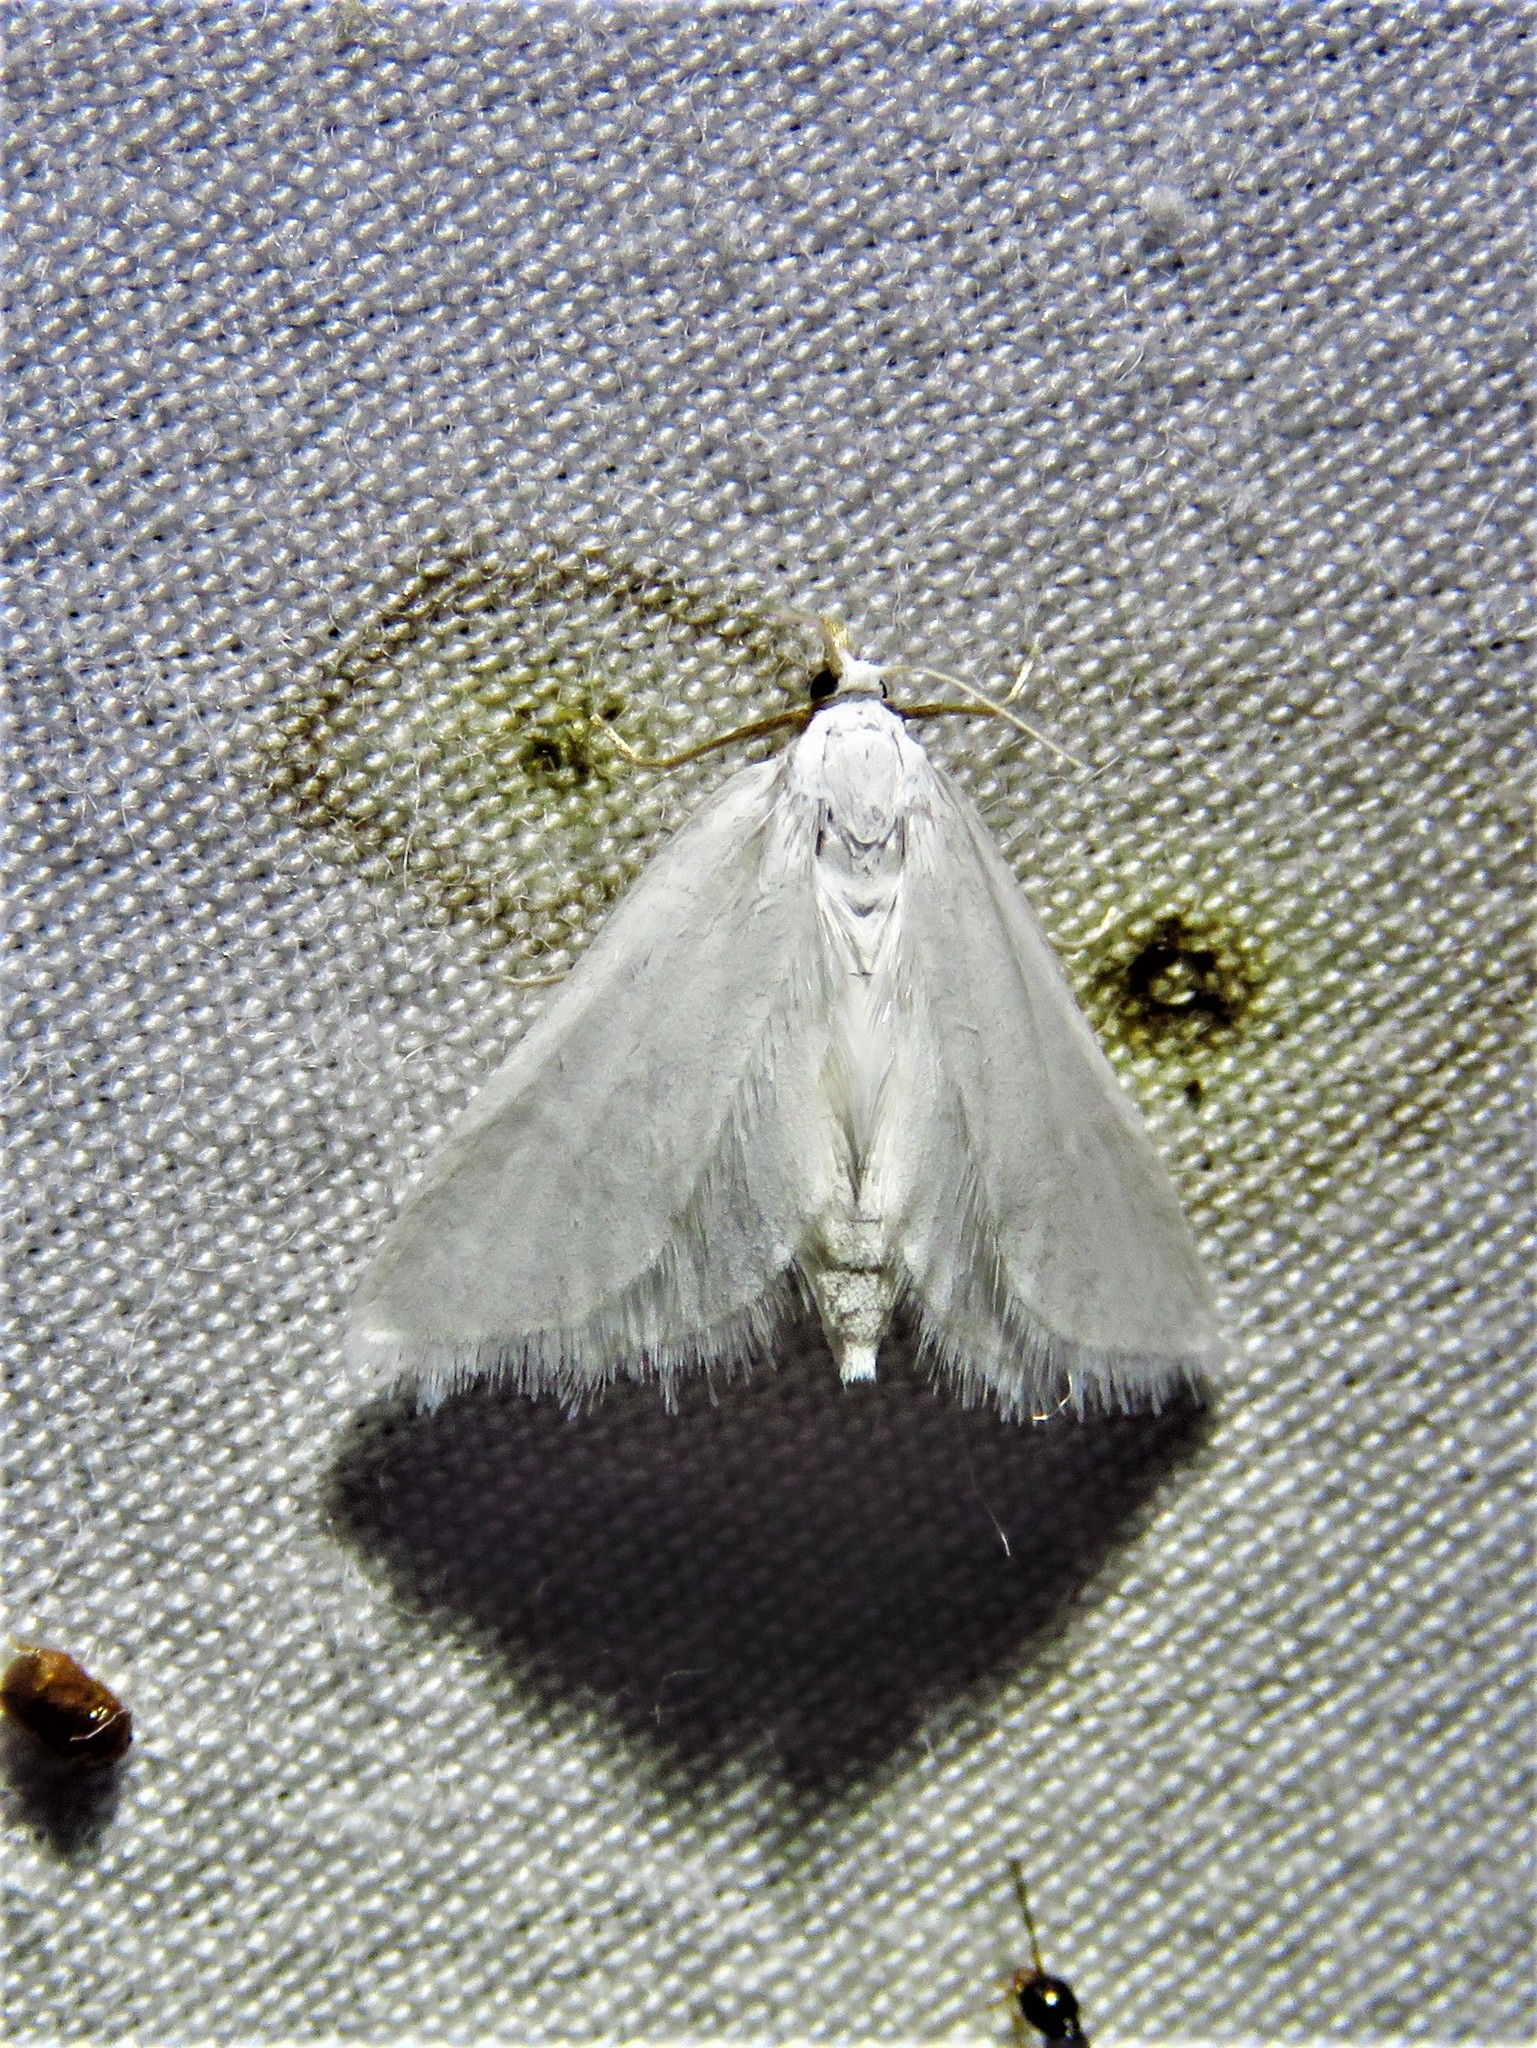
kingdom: Animalia
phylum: Arthropoda
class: Insecta
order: Lepidoptera
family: Crambidae
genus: Leptosteges
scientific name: Leptosteges vestaliella
